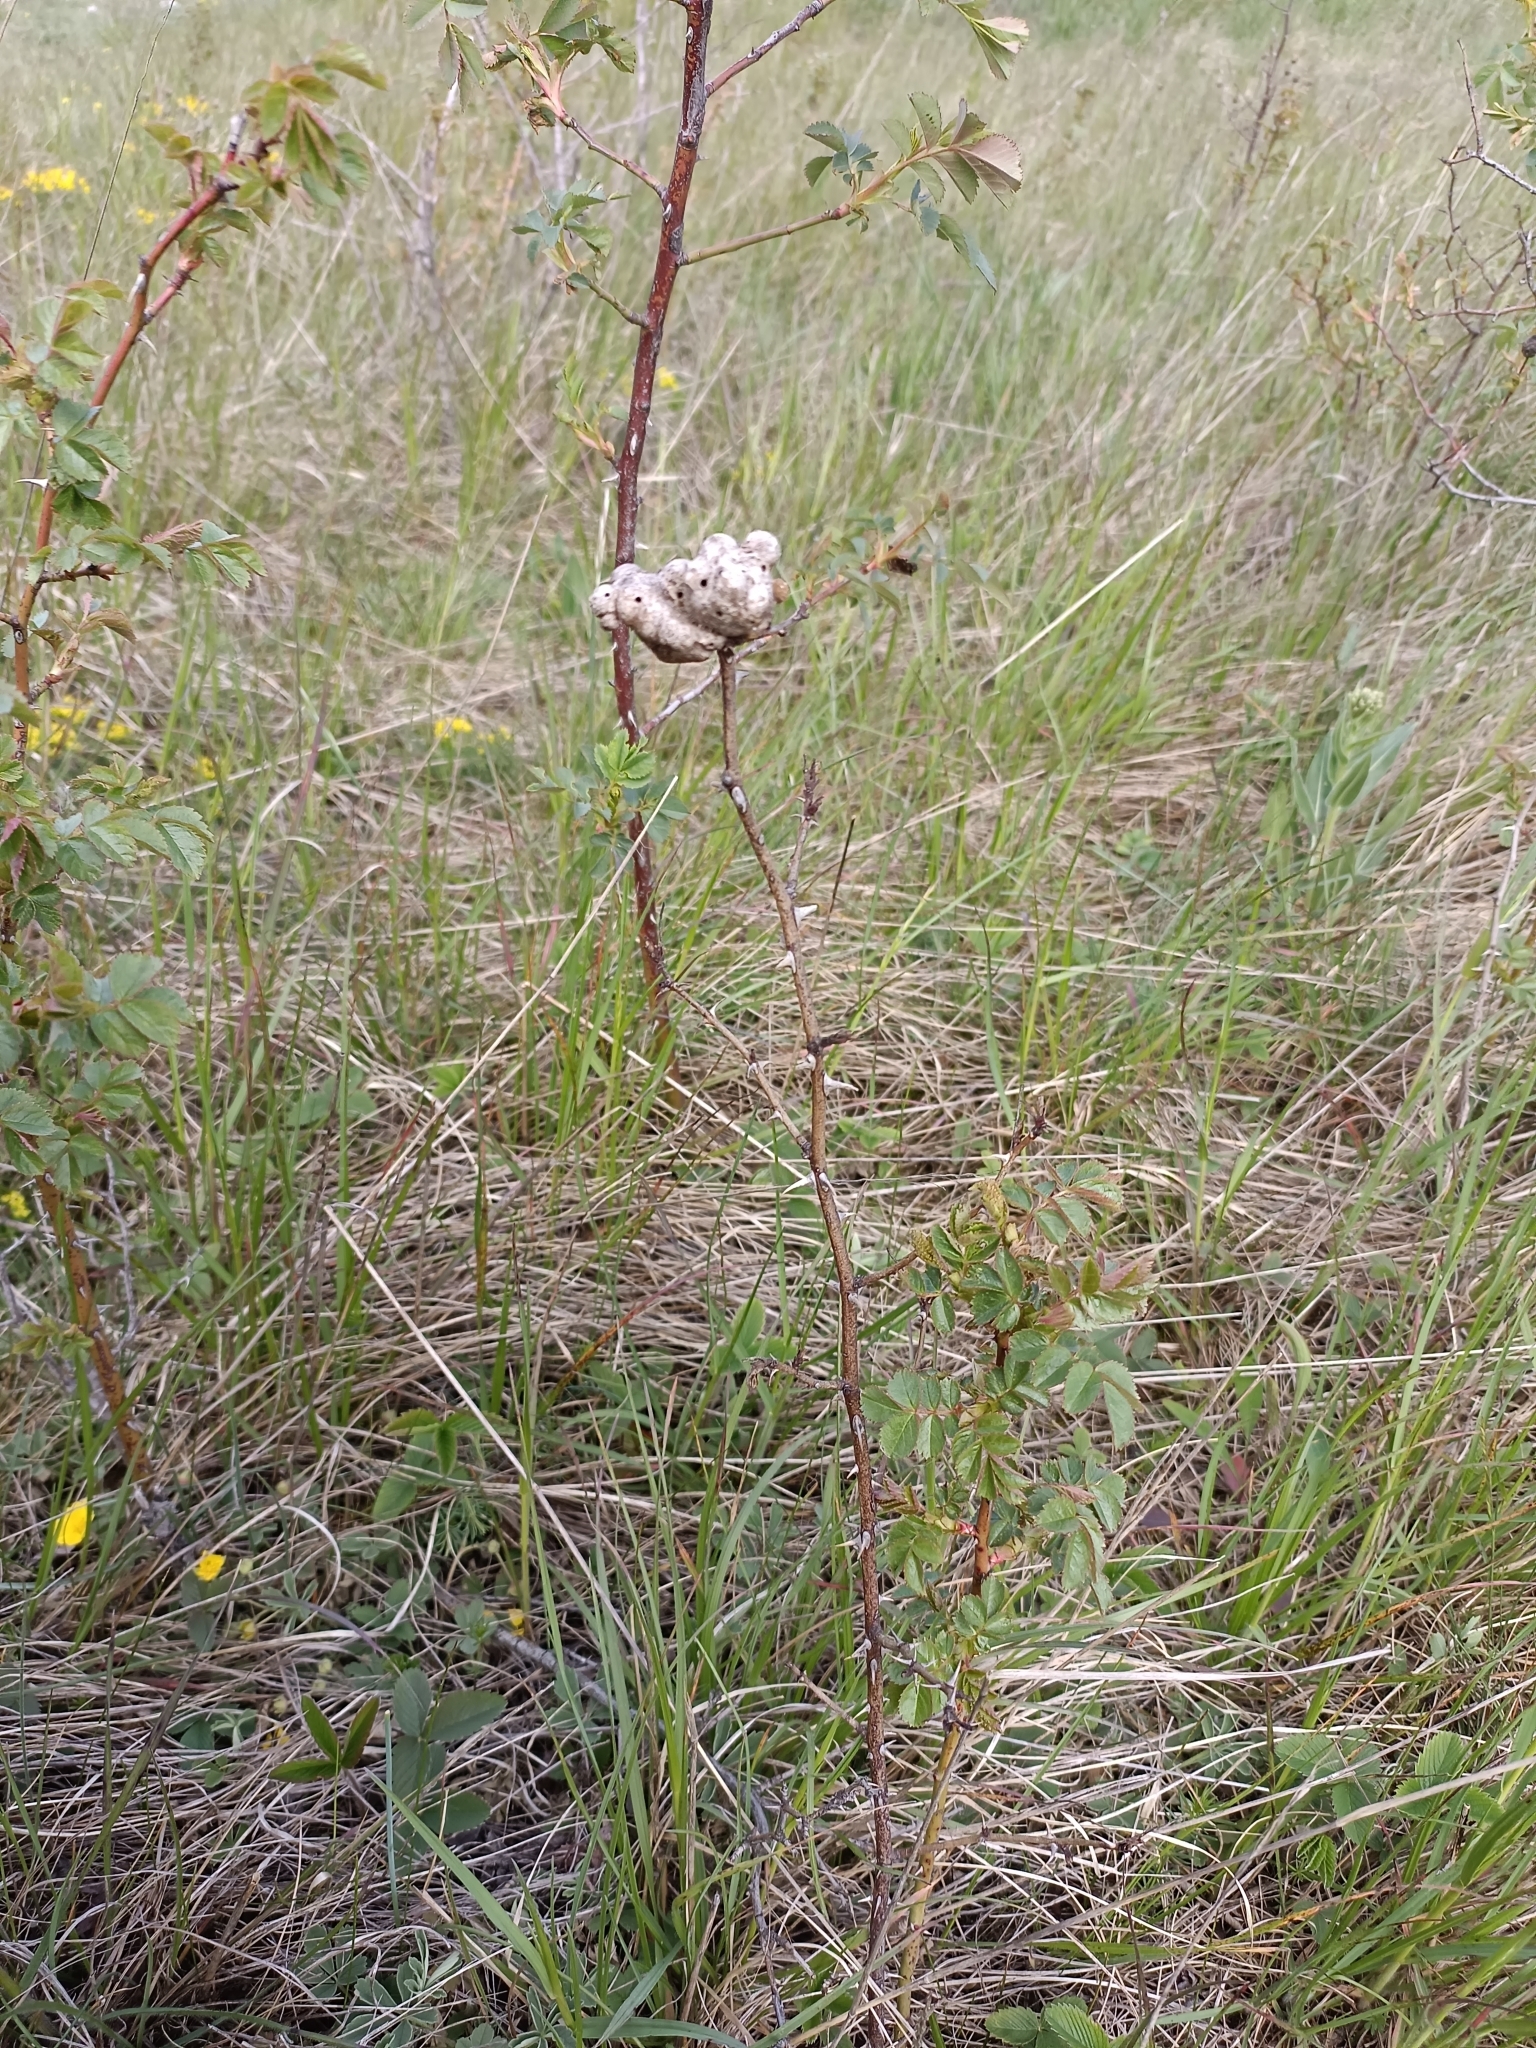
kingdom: Animalia
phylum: Arthropoda
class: Insecta
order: Hymenoptera
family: Cynipidae
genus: Diplolepis
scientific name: Diplolepis mayri
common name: Gall wasp
